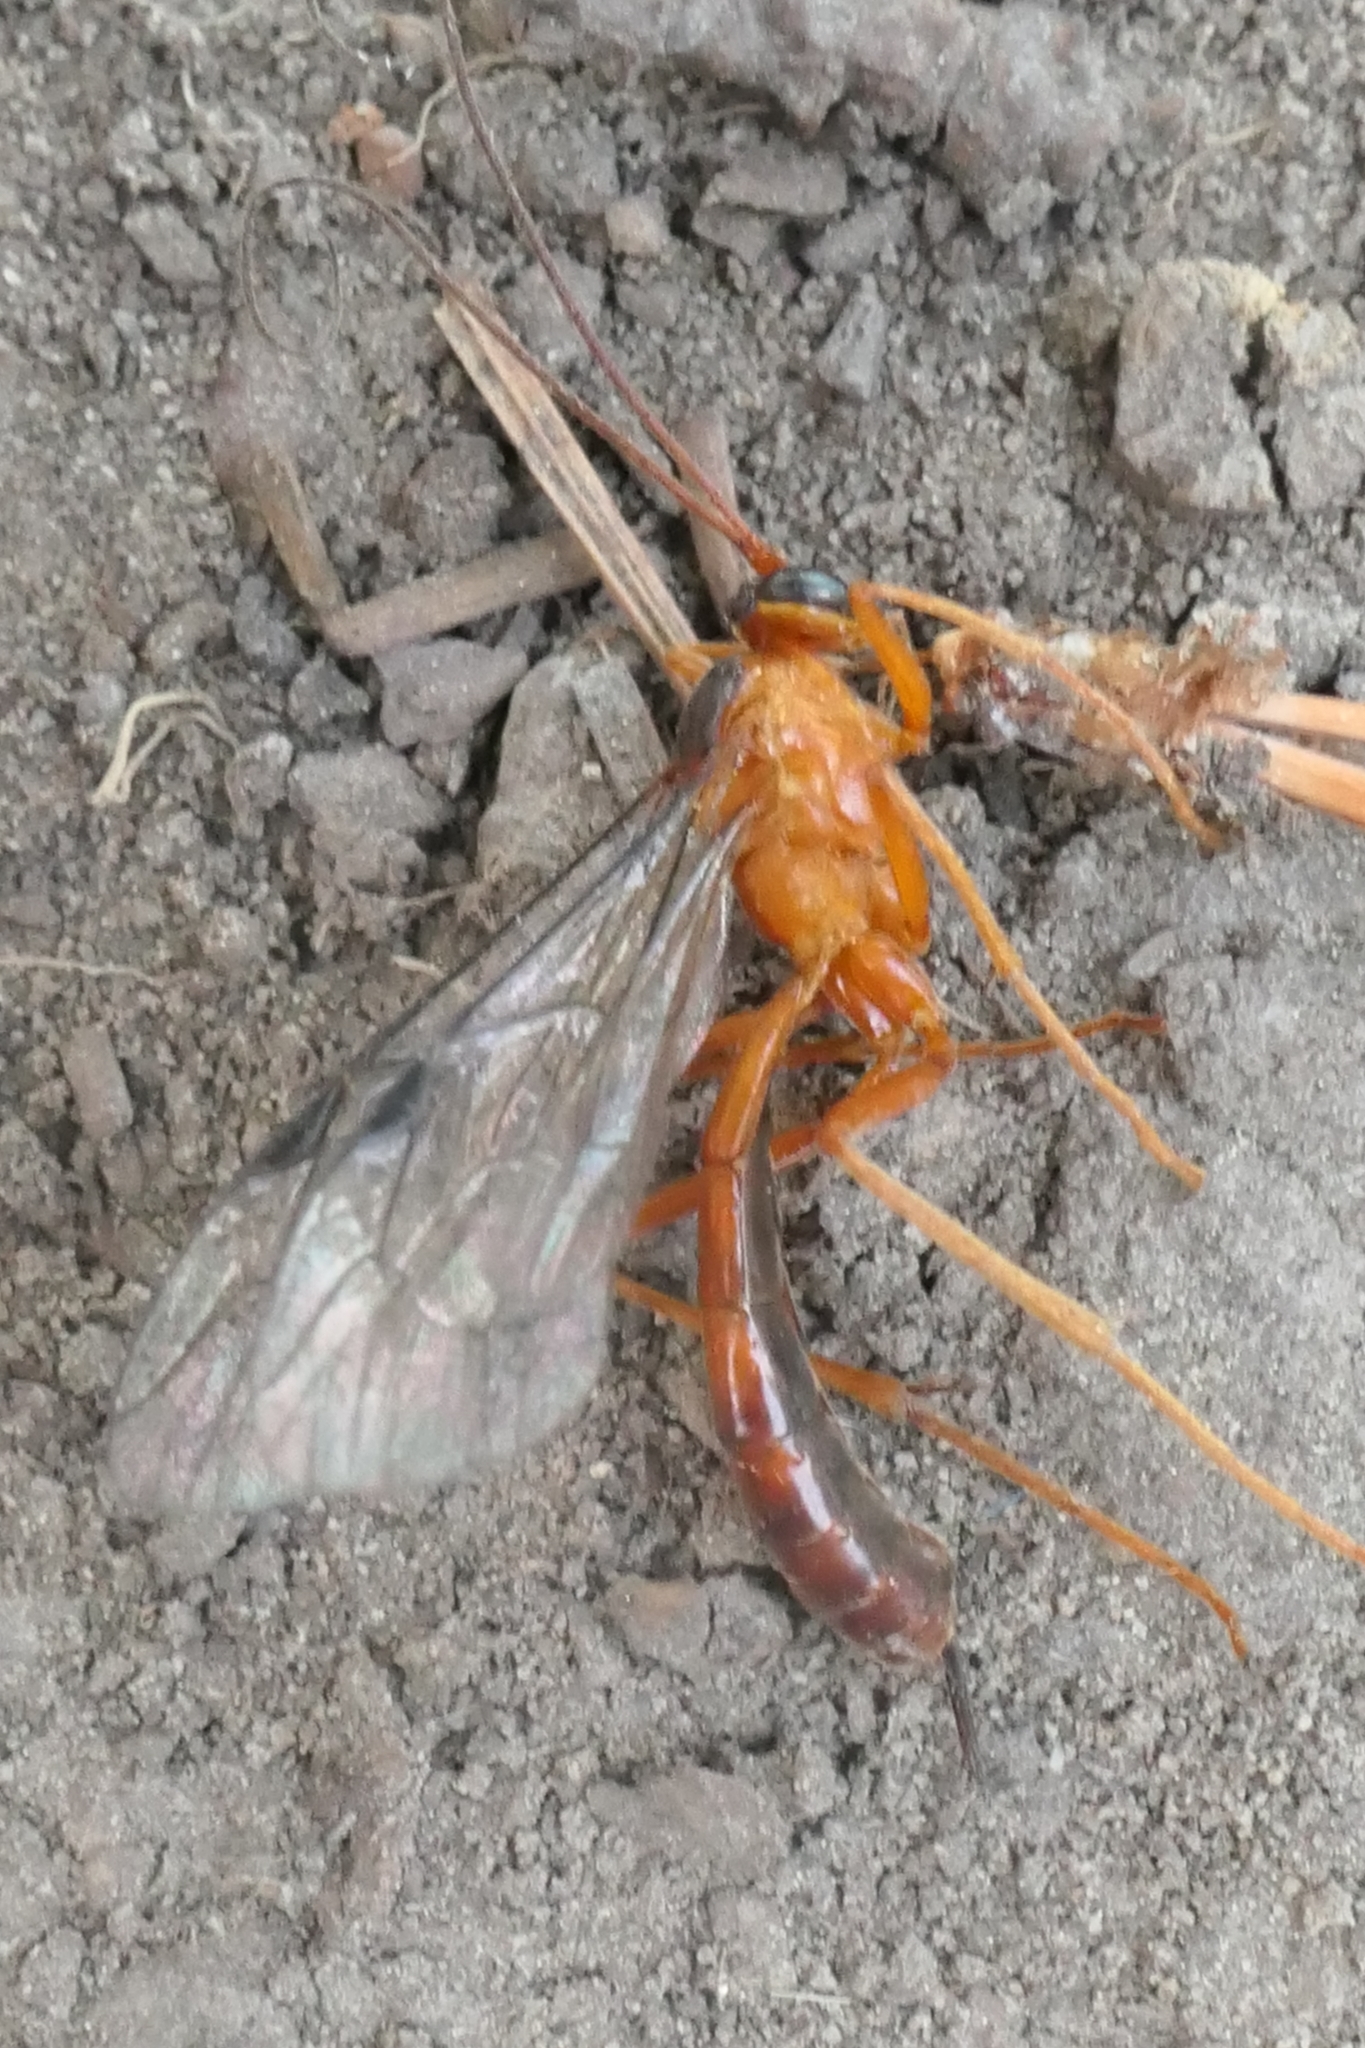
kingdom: Animalia
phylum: Arthropoda
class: Insecta
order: Hymenoptera
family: Ichneumonidae
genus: Netelia
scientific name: Netelia ephippiata
